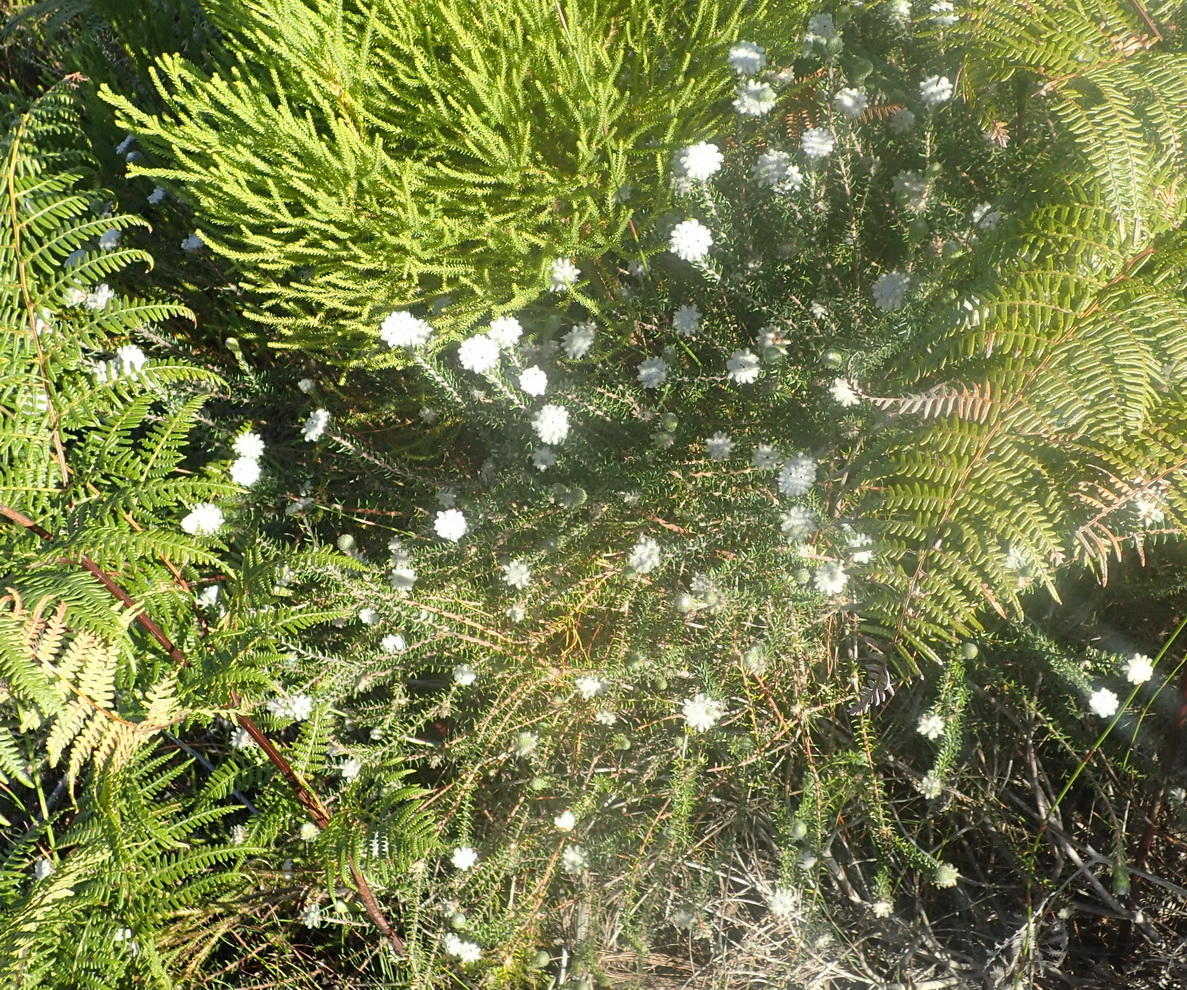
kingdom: Plantae
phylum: Tracheophyta
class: Magnoliopsida
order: Rosales
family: Rhamnaceae
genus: Phylica
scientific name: Phylica curvifolia
